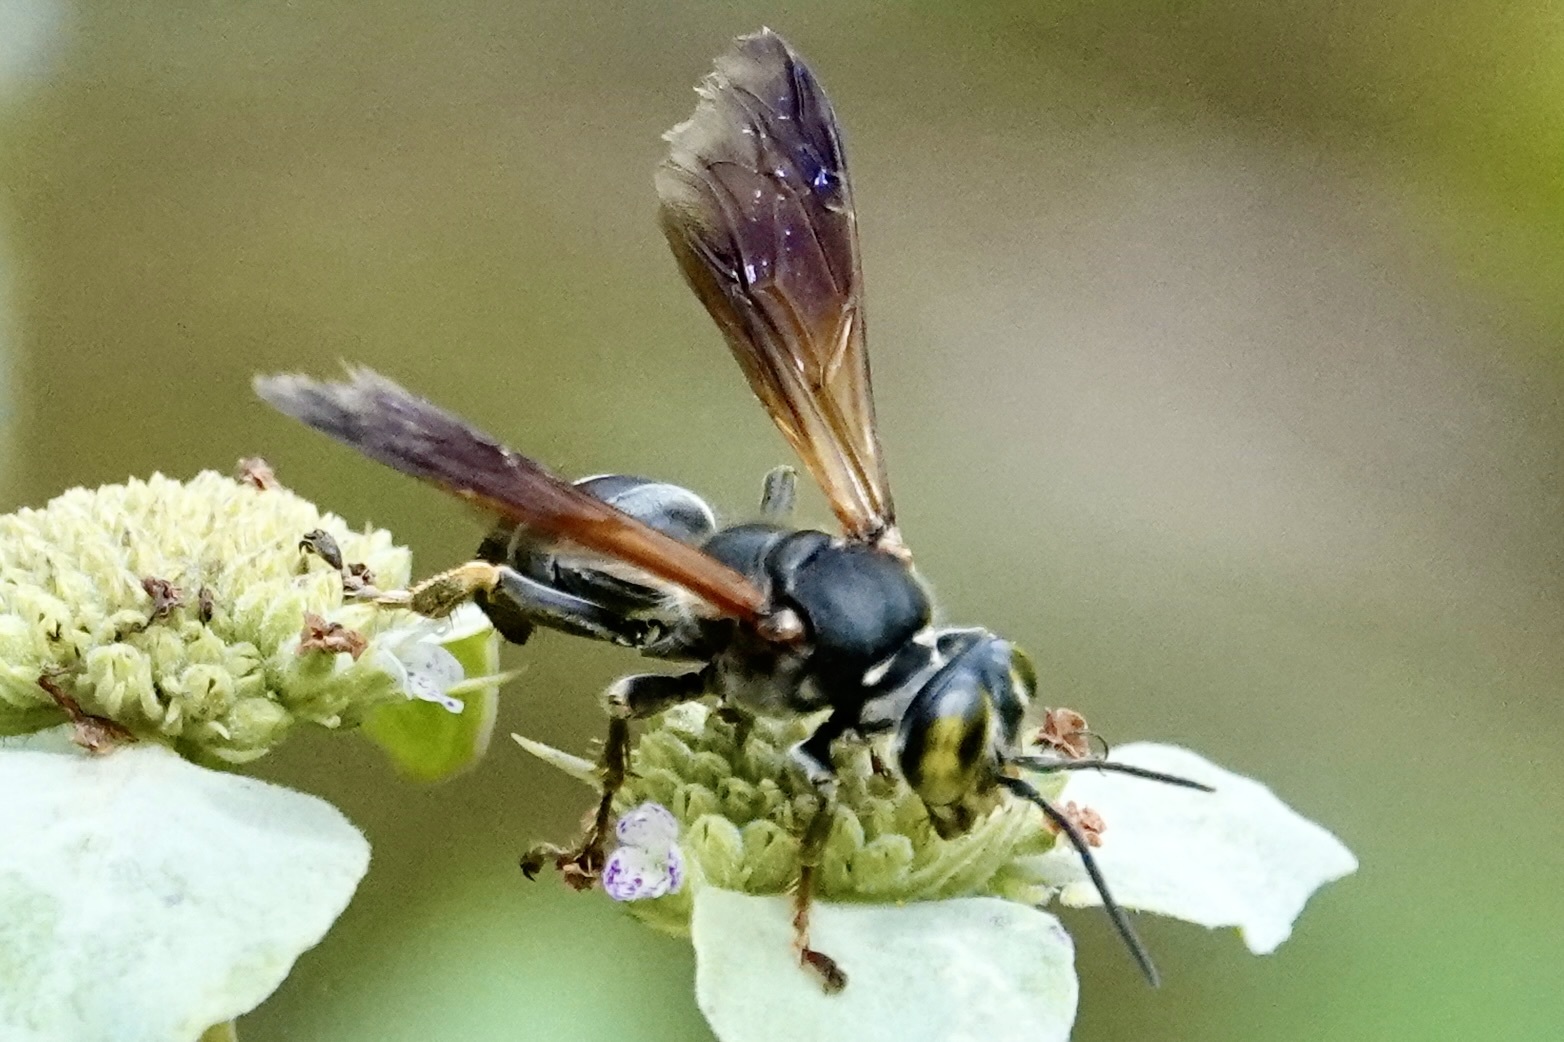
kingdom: Animalia
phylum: Arthropoda
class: Insecta
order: Hymenoptera
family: Crabronidae
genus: Tachytes
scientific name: Tachytes guatemalensis
